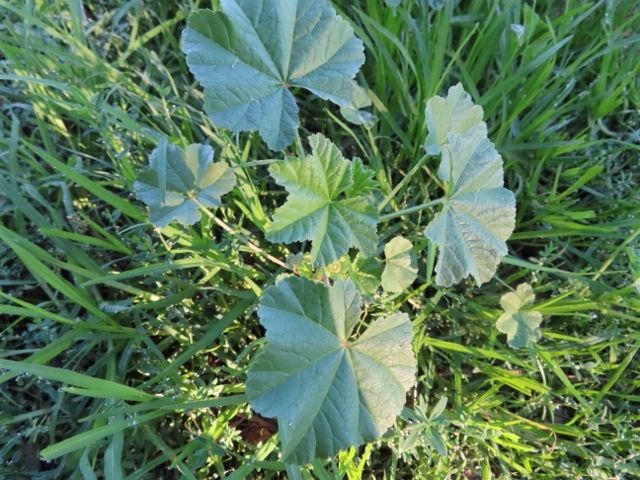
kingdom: Plantae
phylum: Tracheophyta
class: Magnoliopsida
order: Malvales
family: Malvaceae
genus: Malva
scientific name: Malva parviflora
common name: Least mallow
